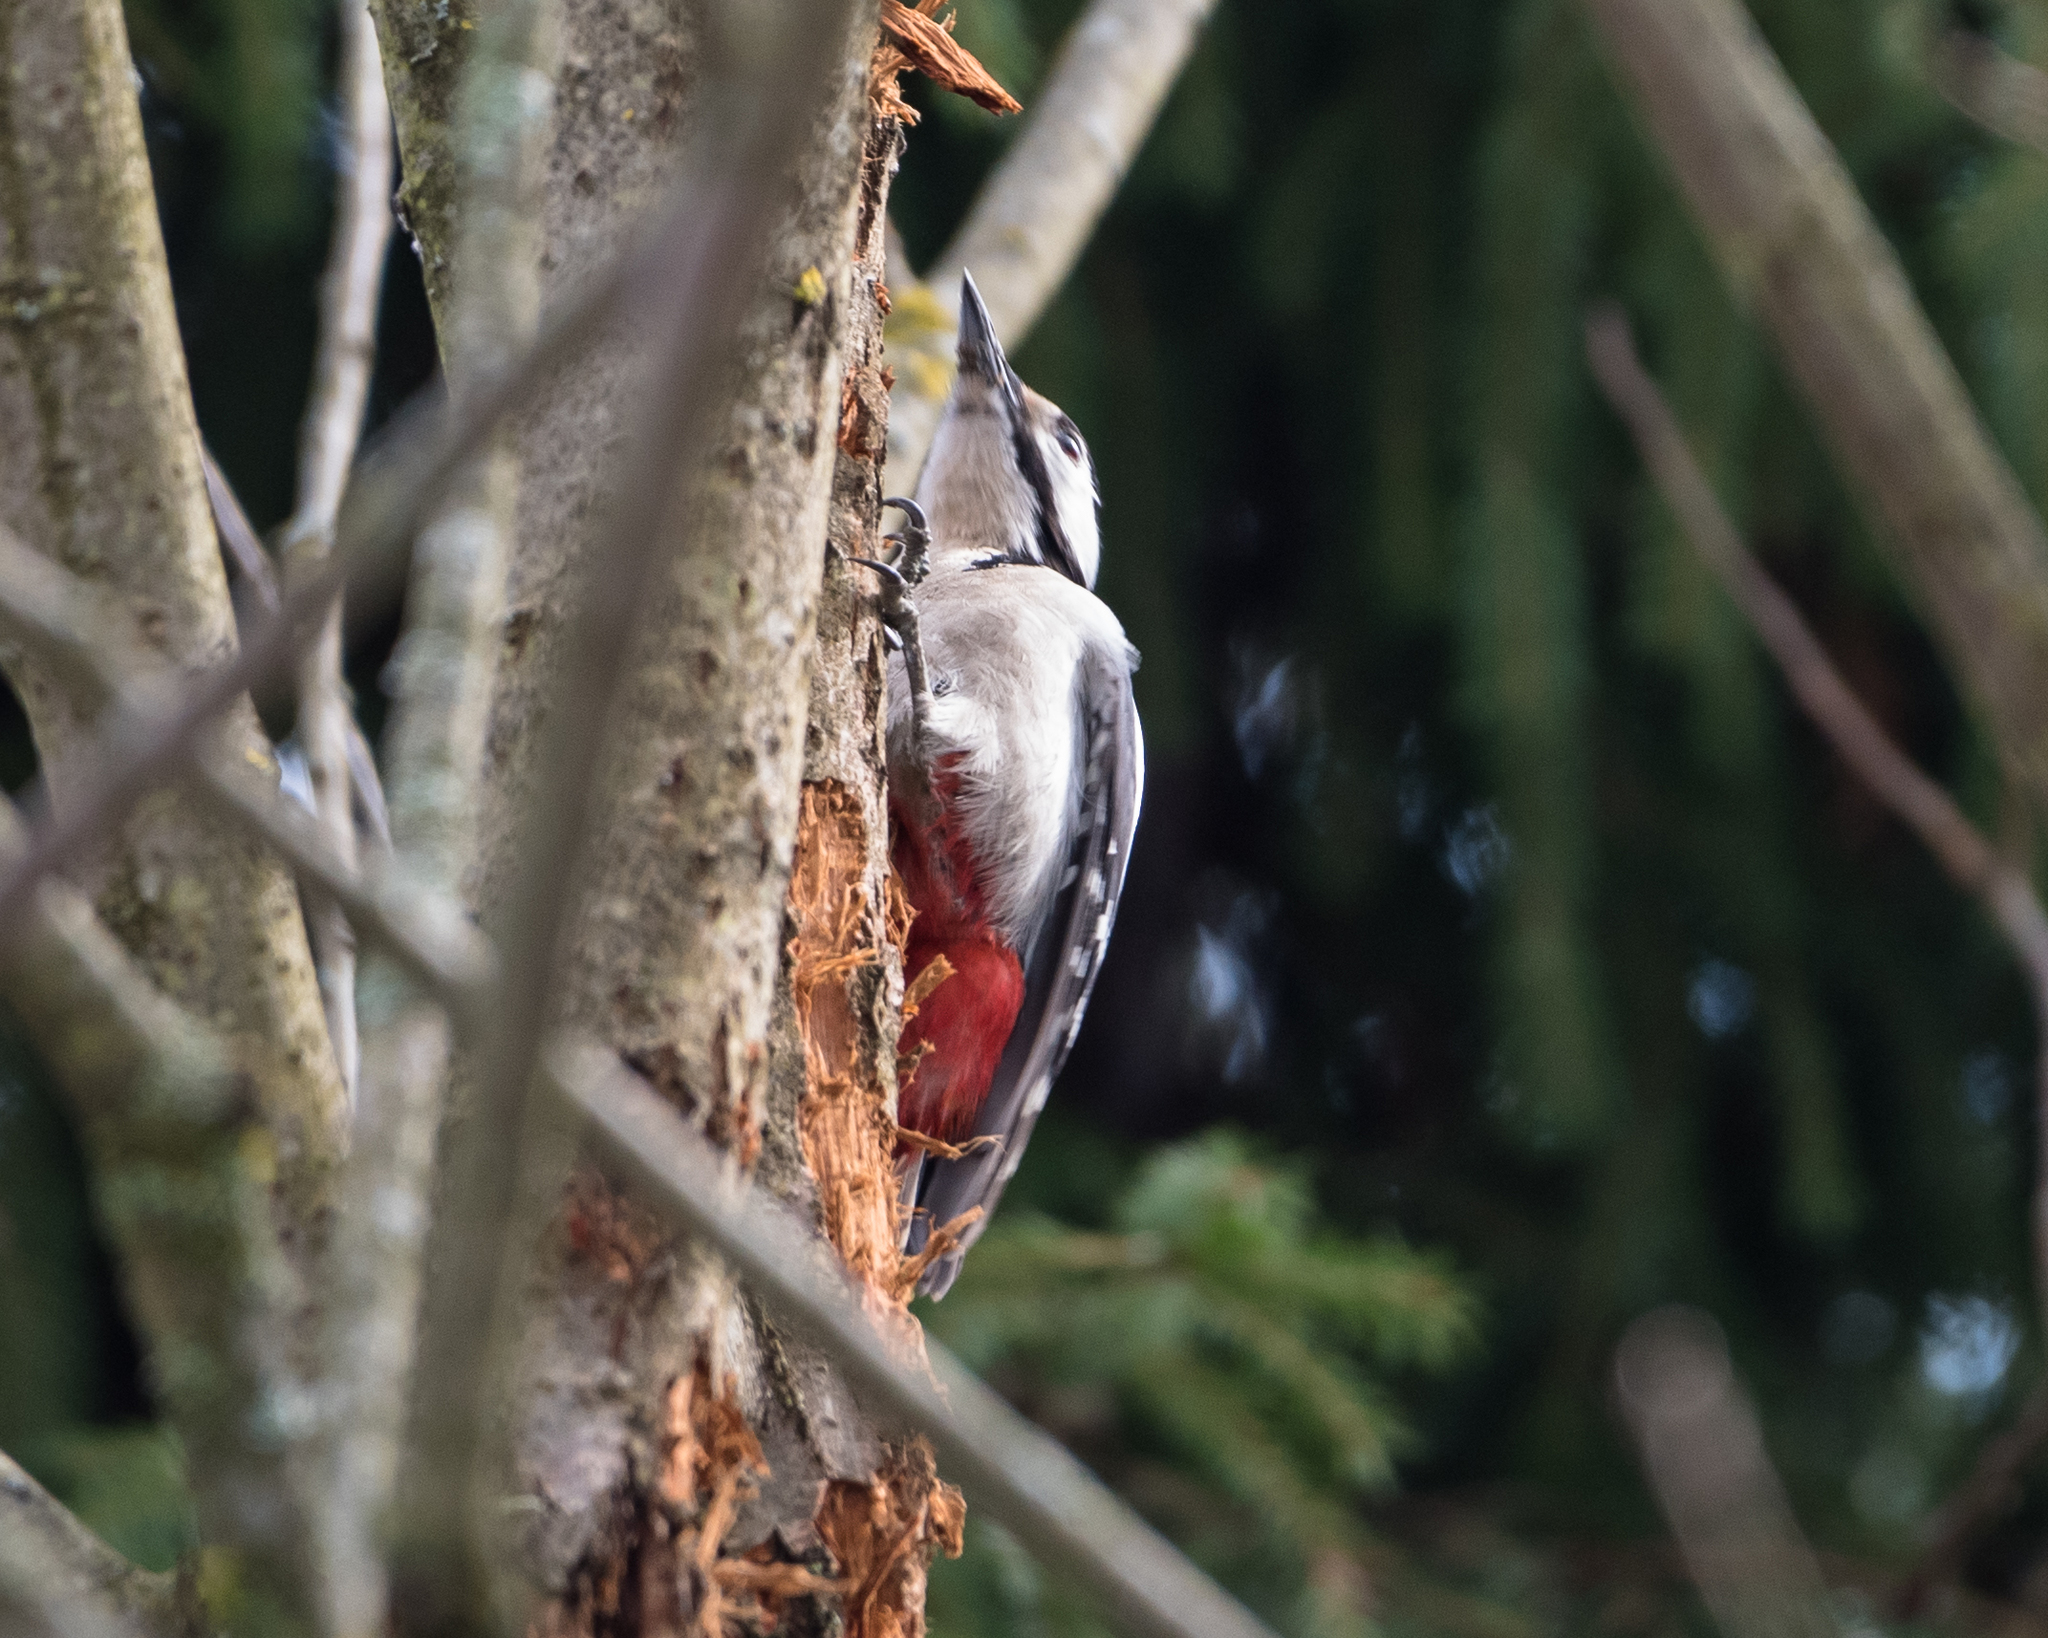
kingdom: Animalia
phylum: Chordata
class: Aves
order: Piciformes
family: Picidae
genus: Dendrocopos
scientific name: Dendrocopos major
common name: Great spotted woodpecker
